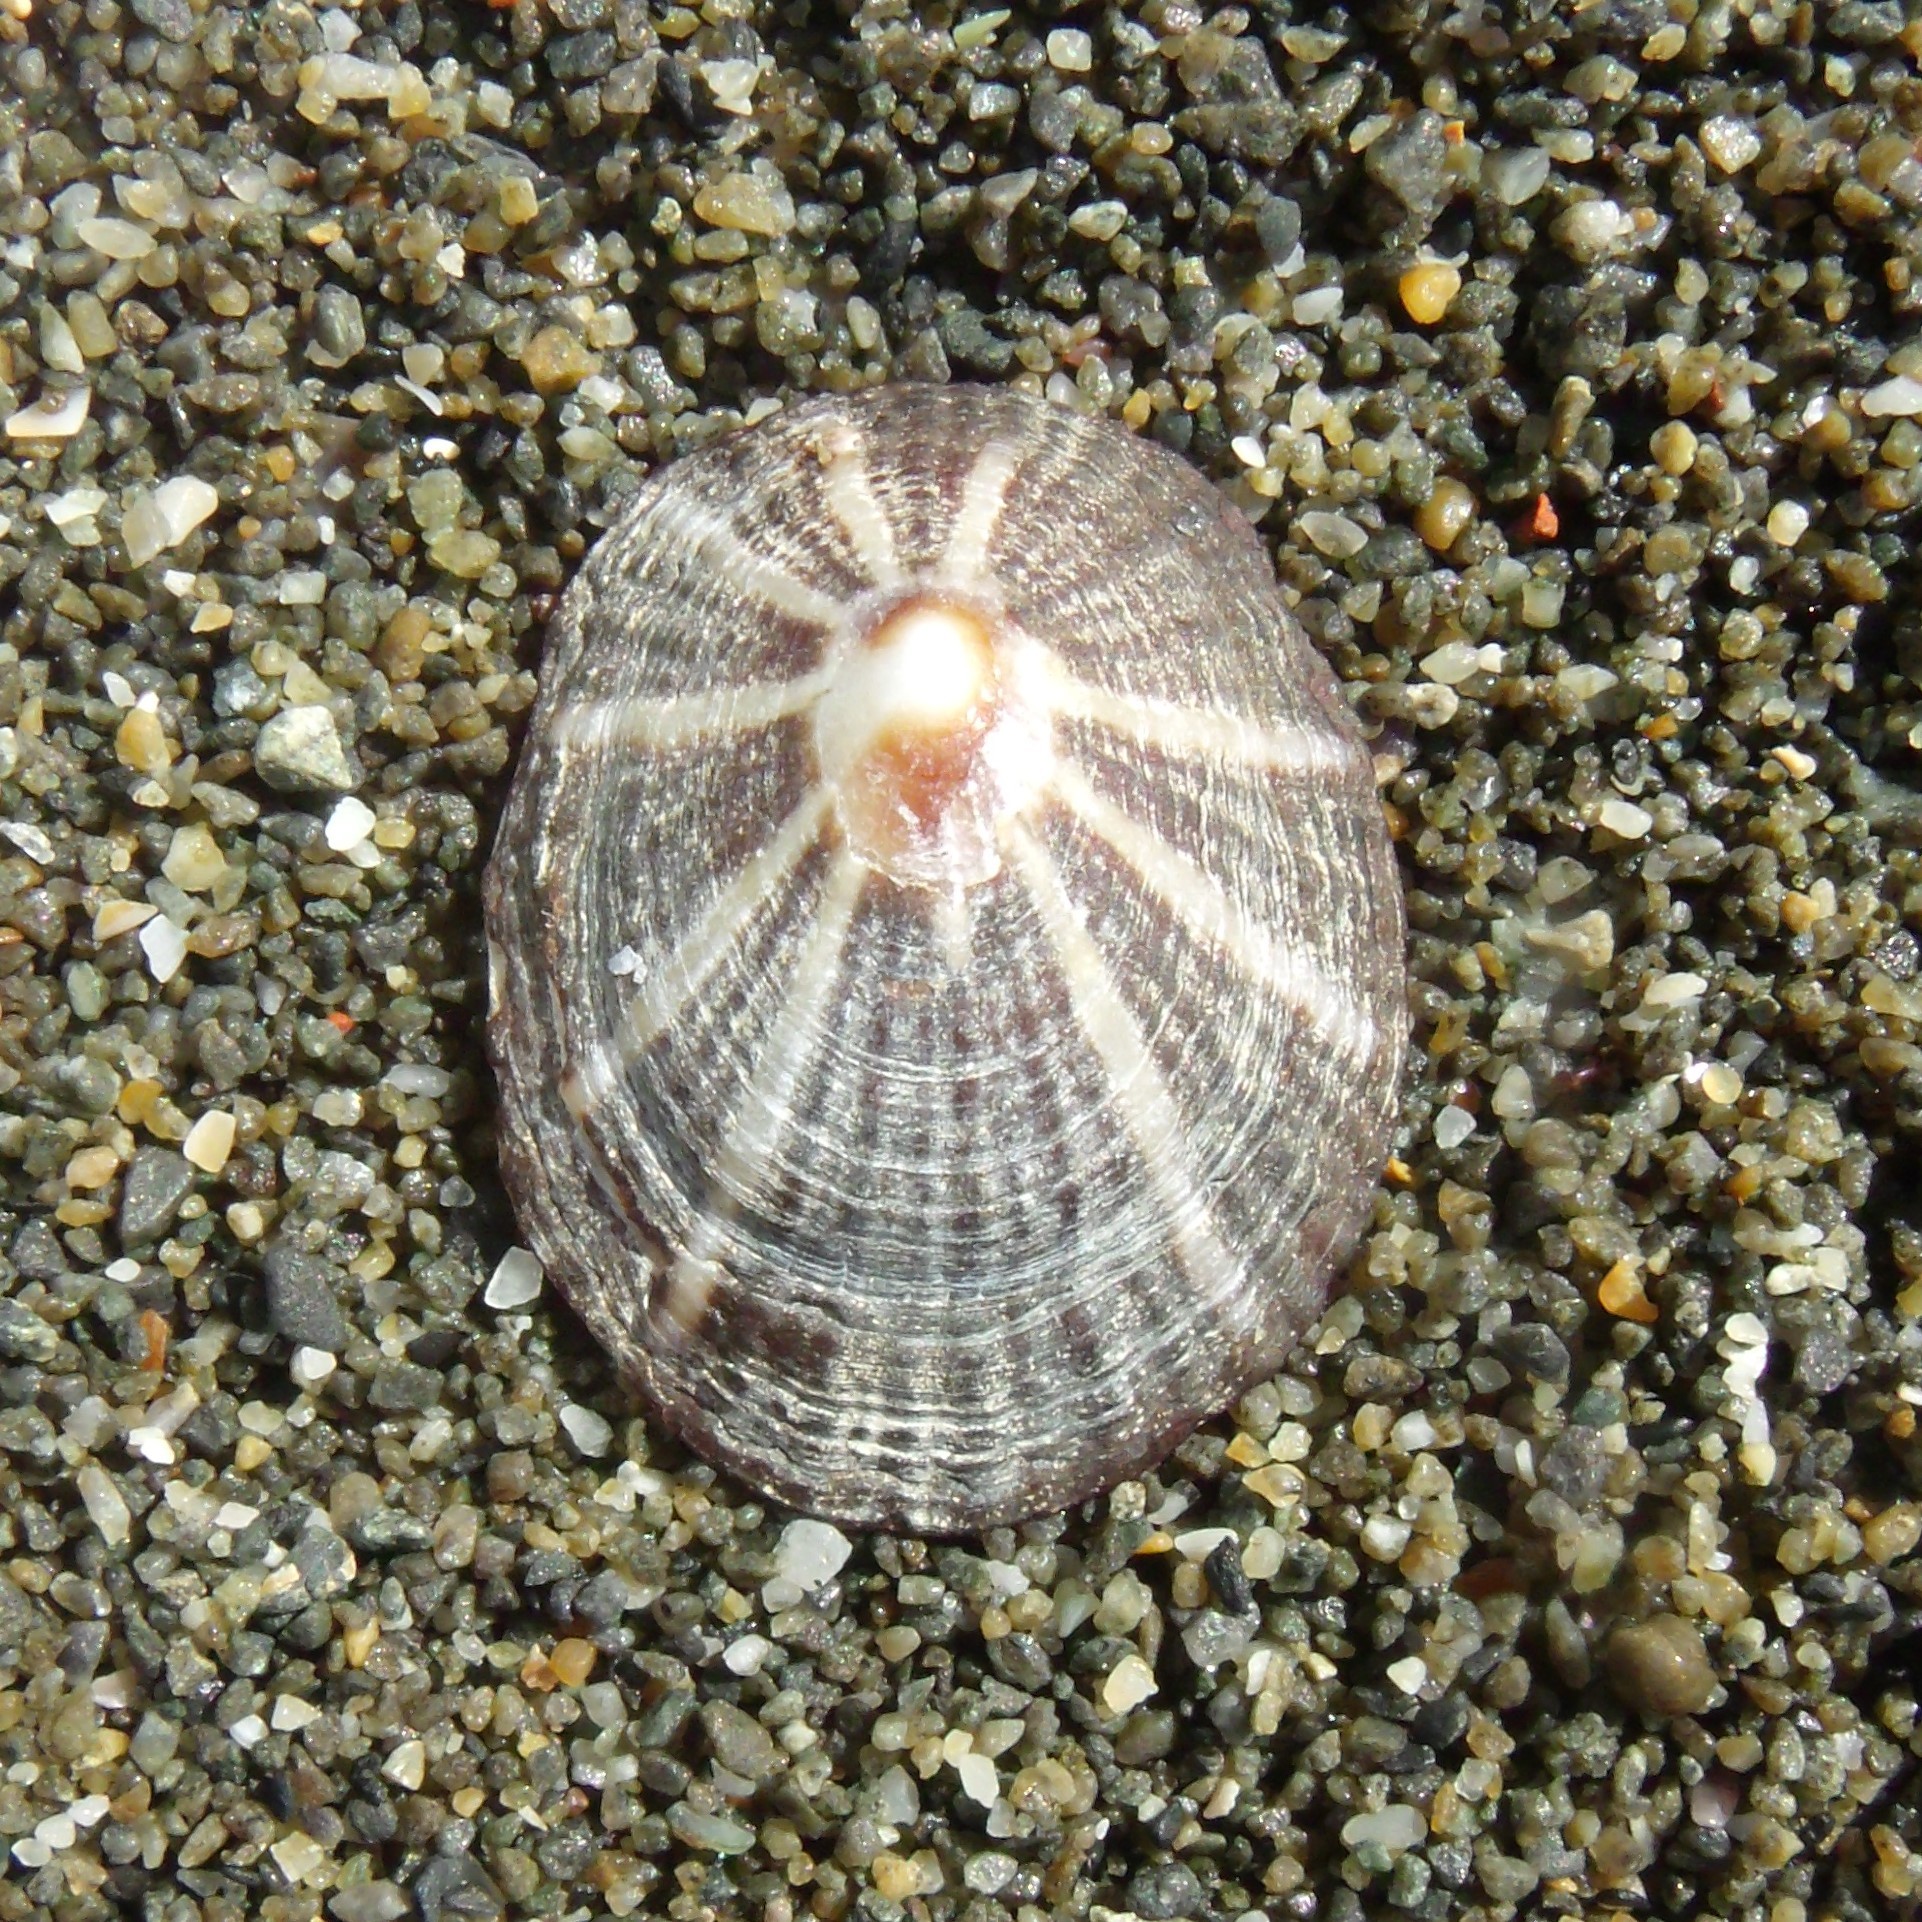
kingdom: Animalia
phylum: Mollusca
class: Gastropoda
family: Nacellidae
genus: Cellana
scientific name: Cellana stellifera
